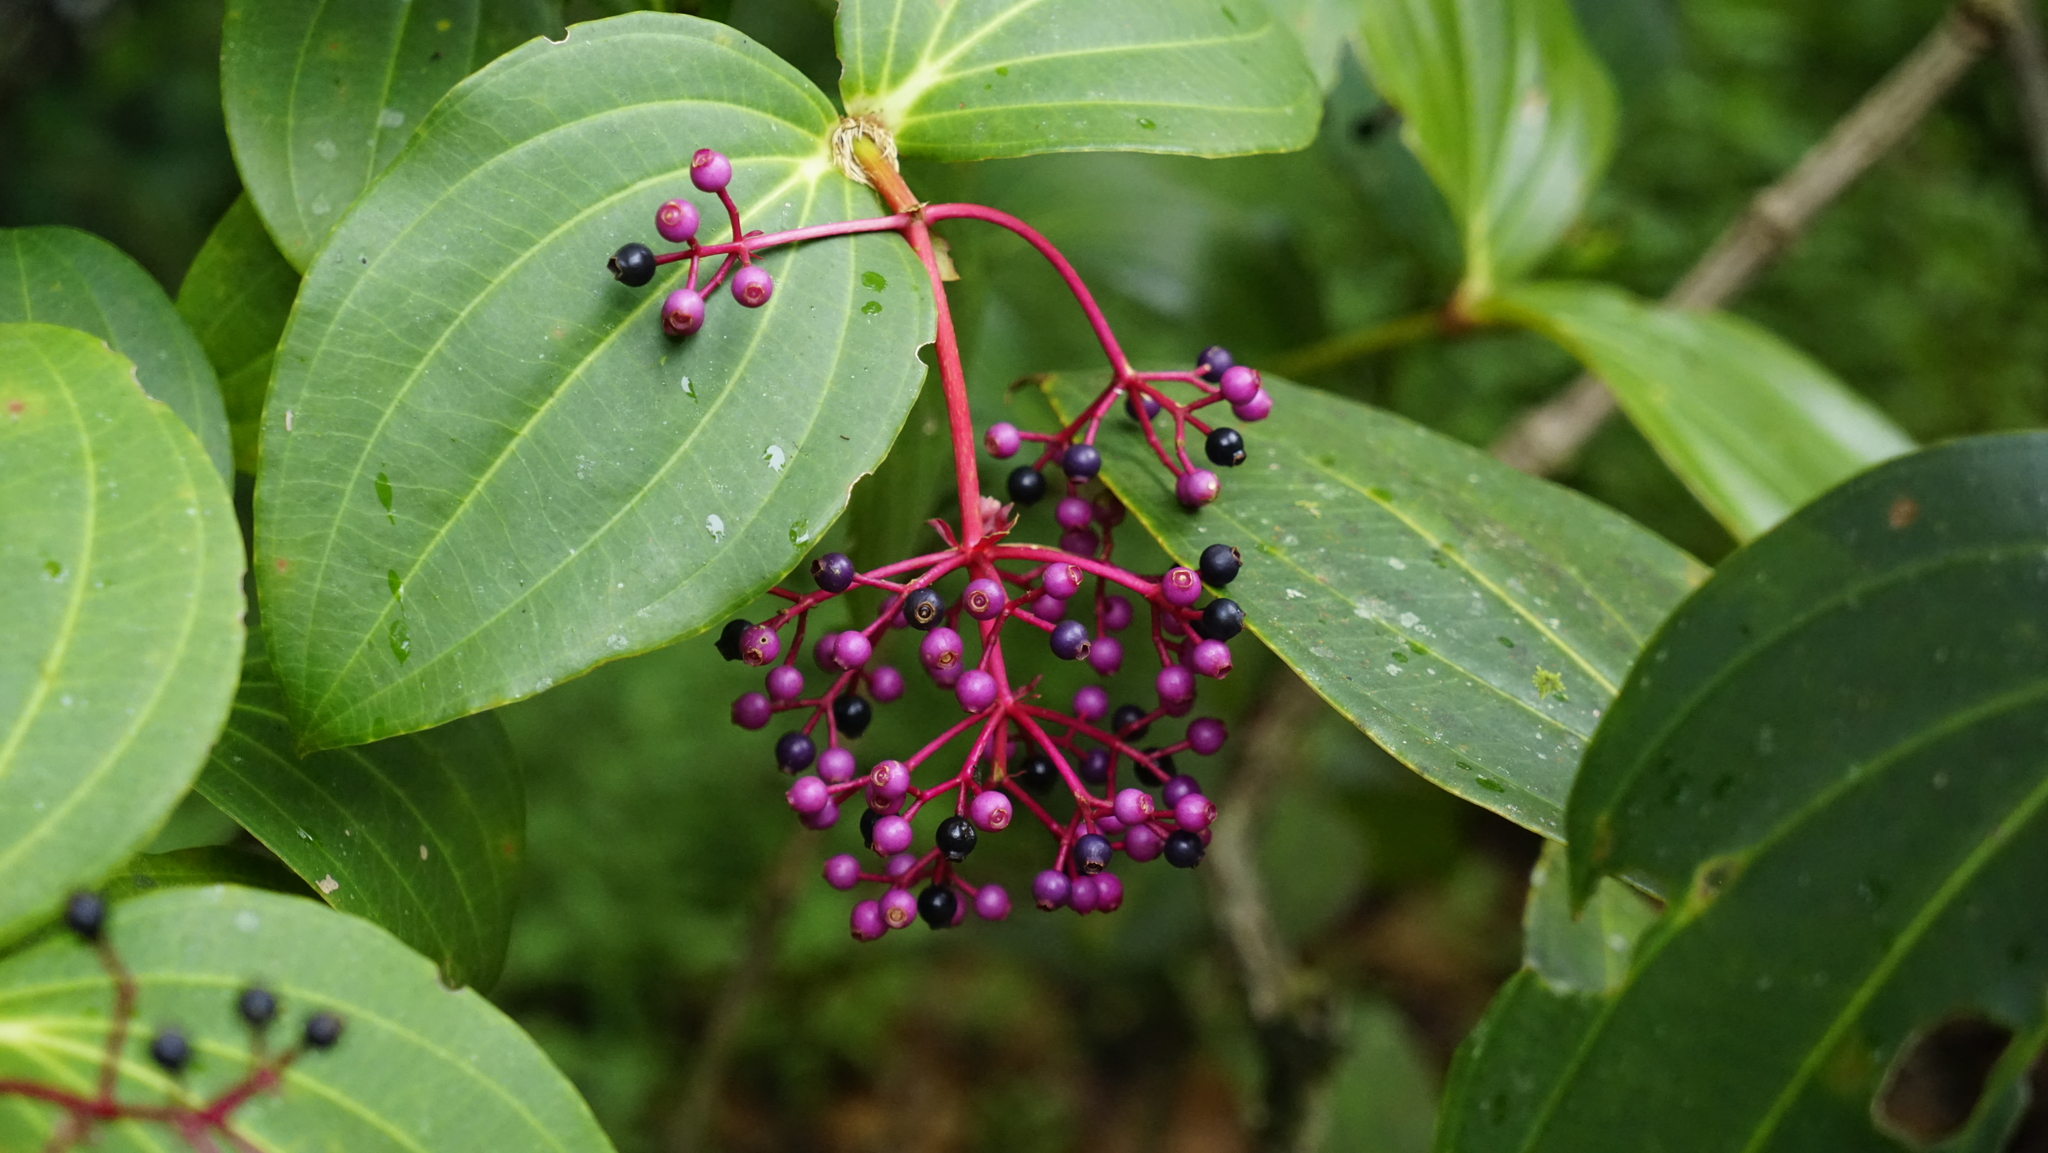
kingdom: Plantae
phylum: Tracheophyta
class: Magnoliopsida
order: Myrtales
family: Melastomataceae
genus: Medinilla
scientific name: Medinilla speciosa
